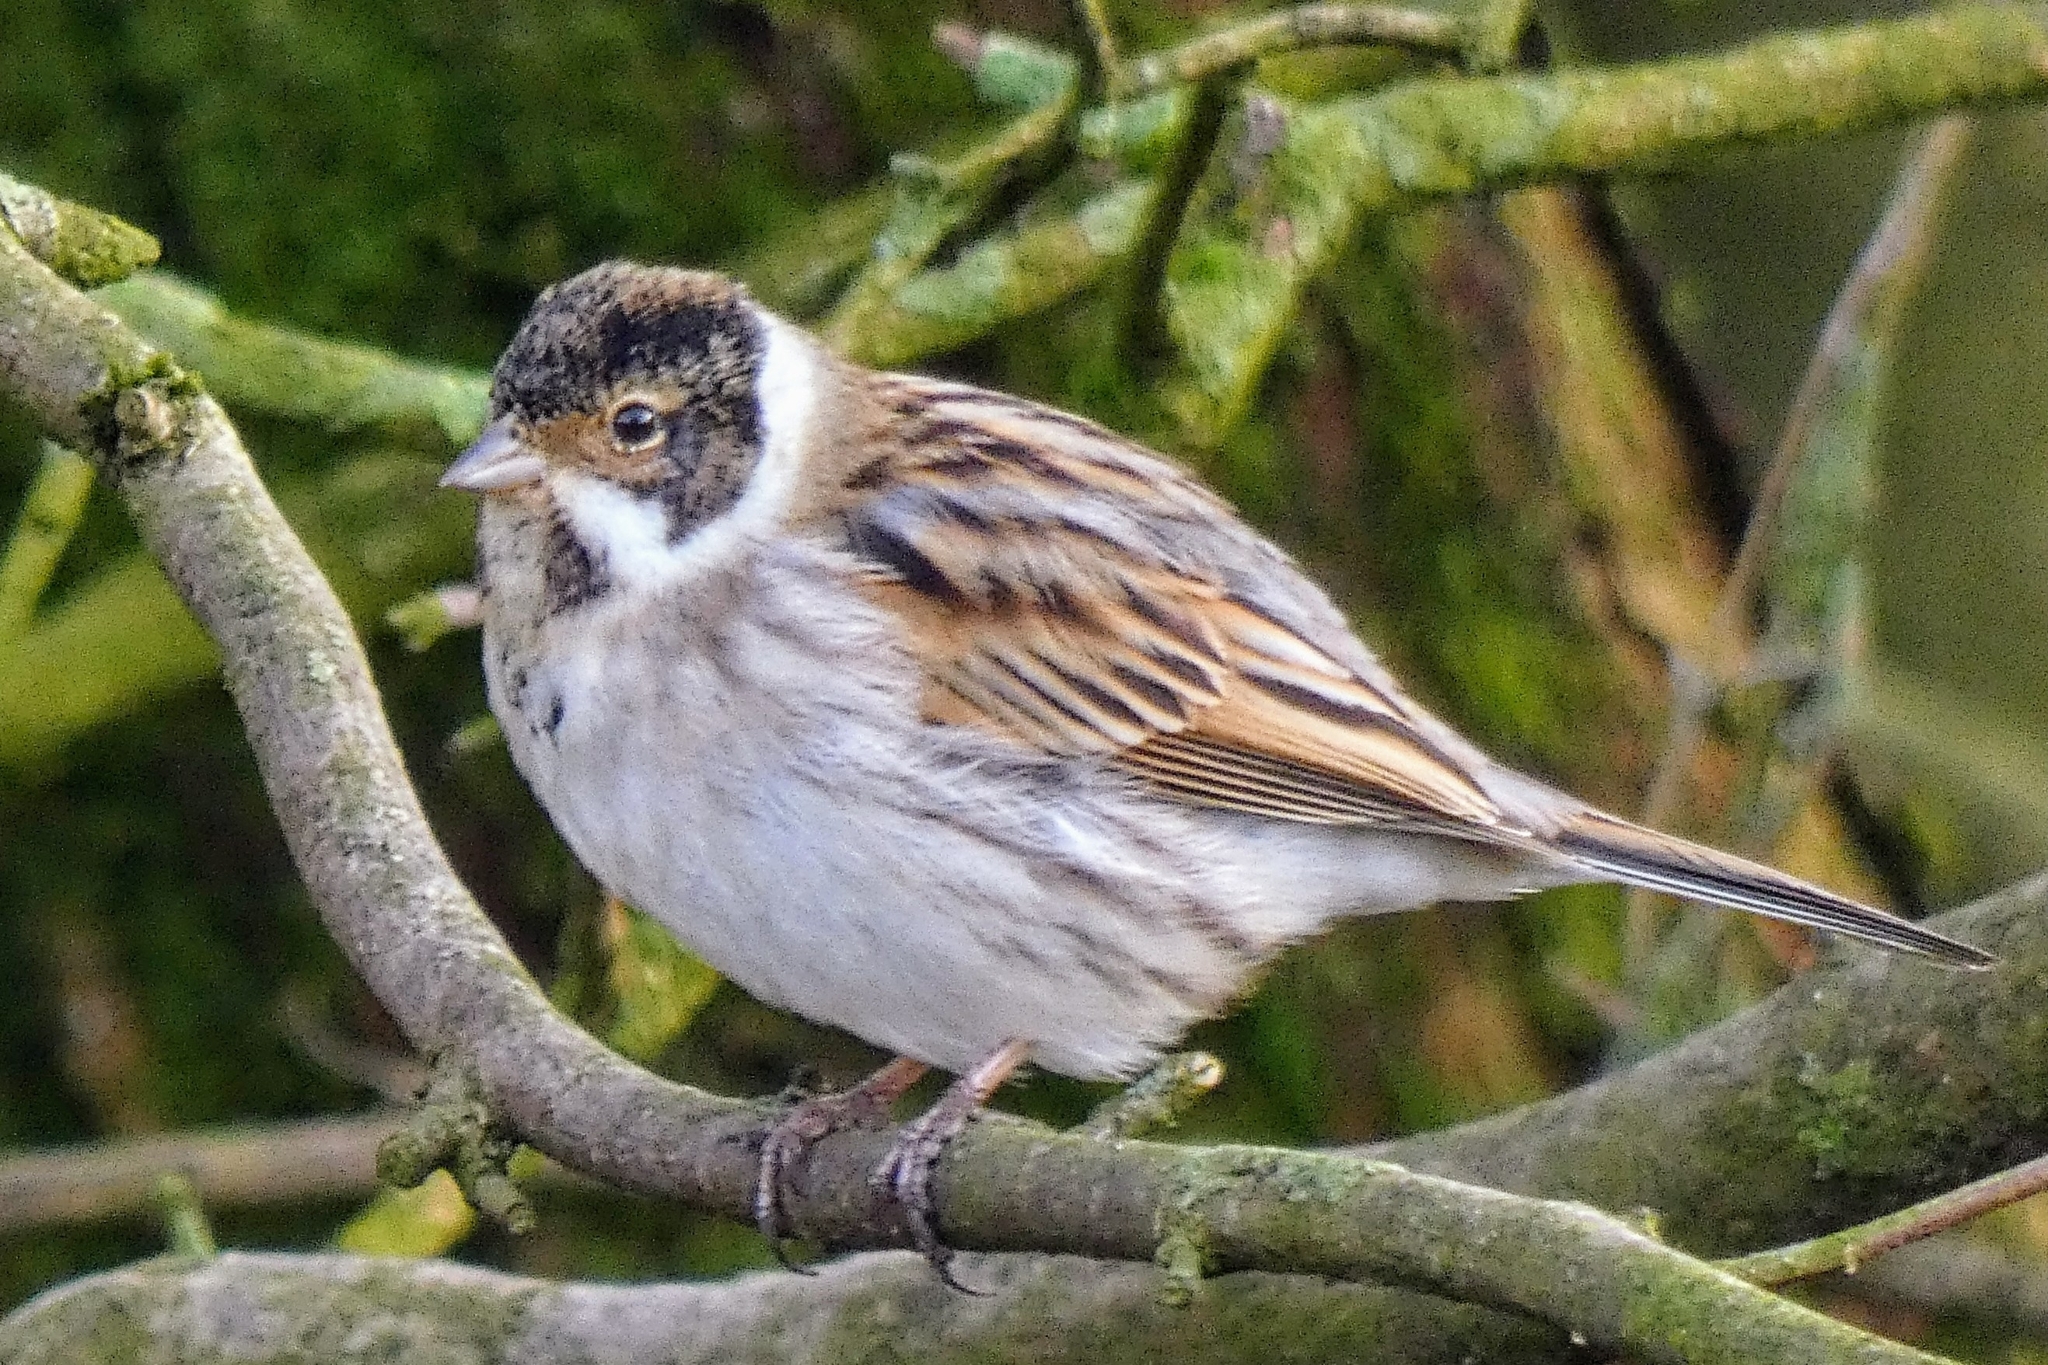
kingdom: Animalia
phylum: Chordata
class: Aves
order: Passeriformes
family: Emberizidae
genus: Emberiza
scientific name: Emberiza schoeniclus
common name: Reed bunting
